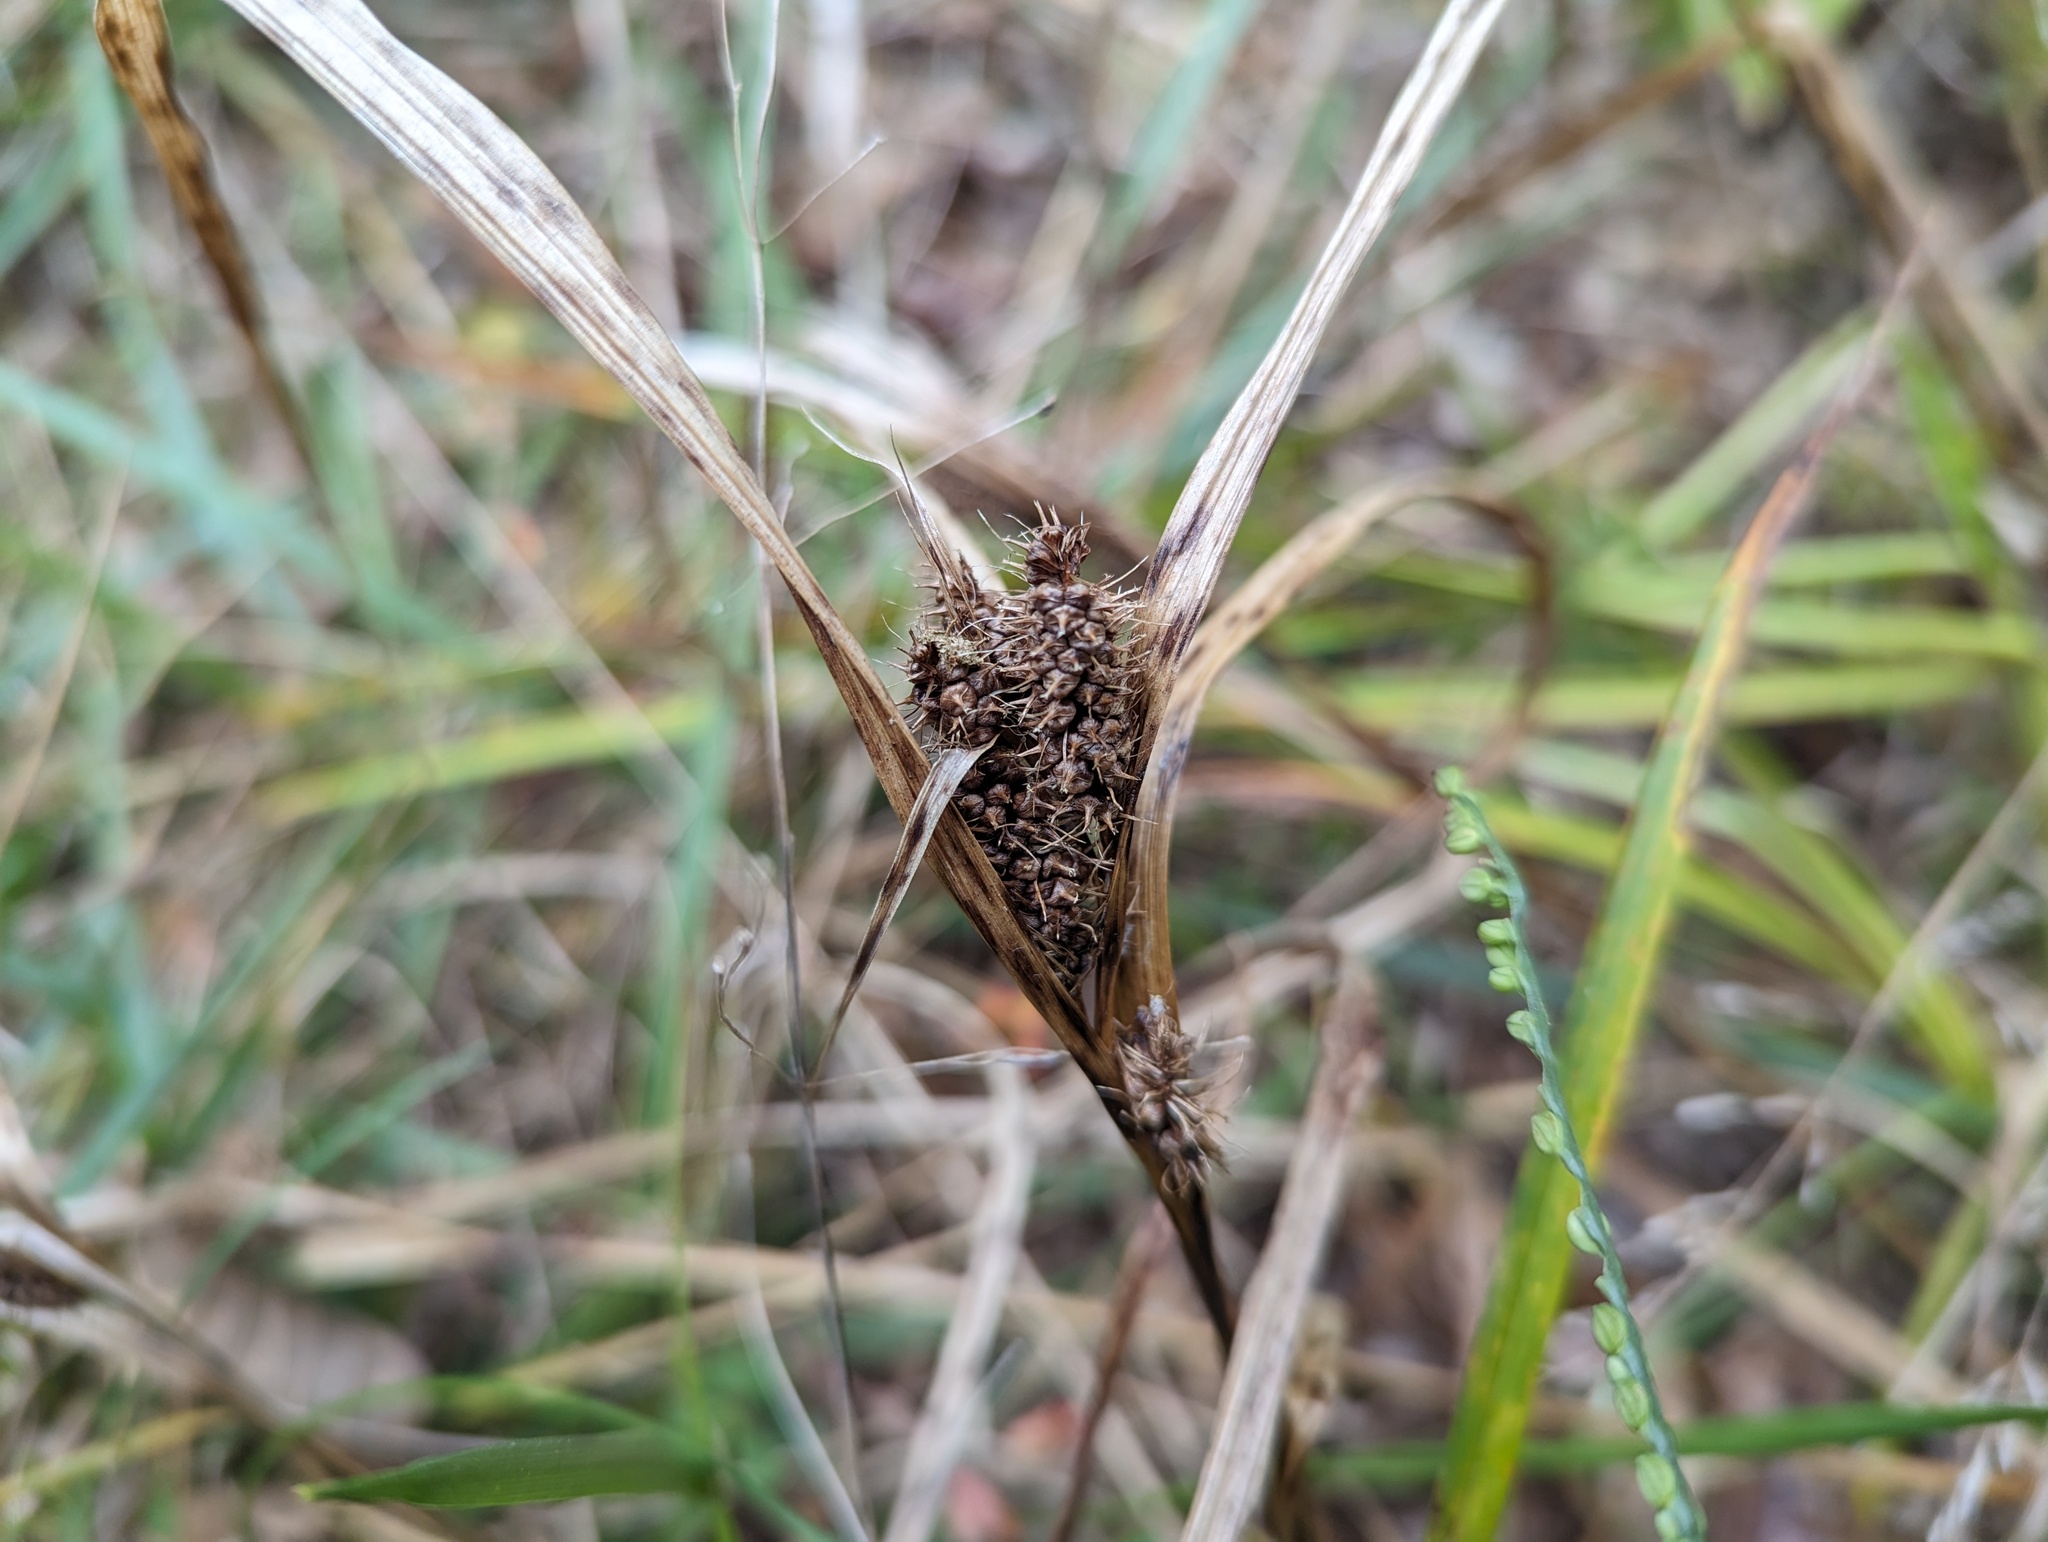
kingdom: Plantae
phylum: Tracheophyta
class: Liliopsida
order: Poales
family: Cyperaceae
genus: Carex
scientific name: Carex frankii
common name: Frank's sedge
